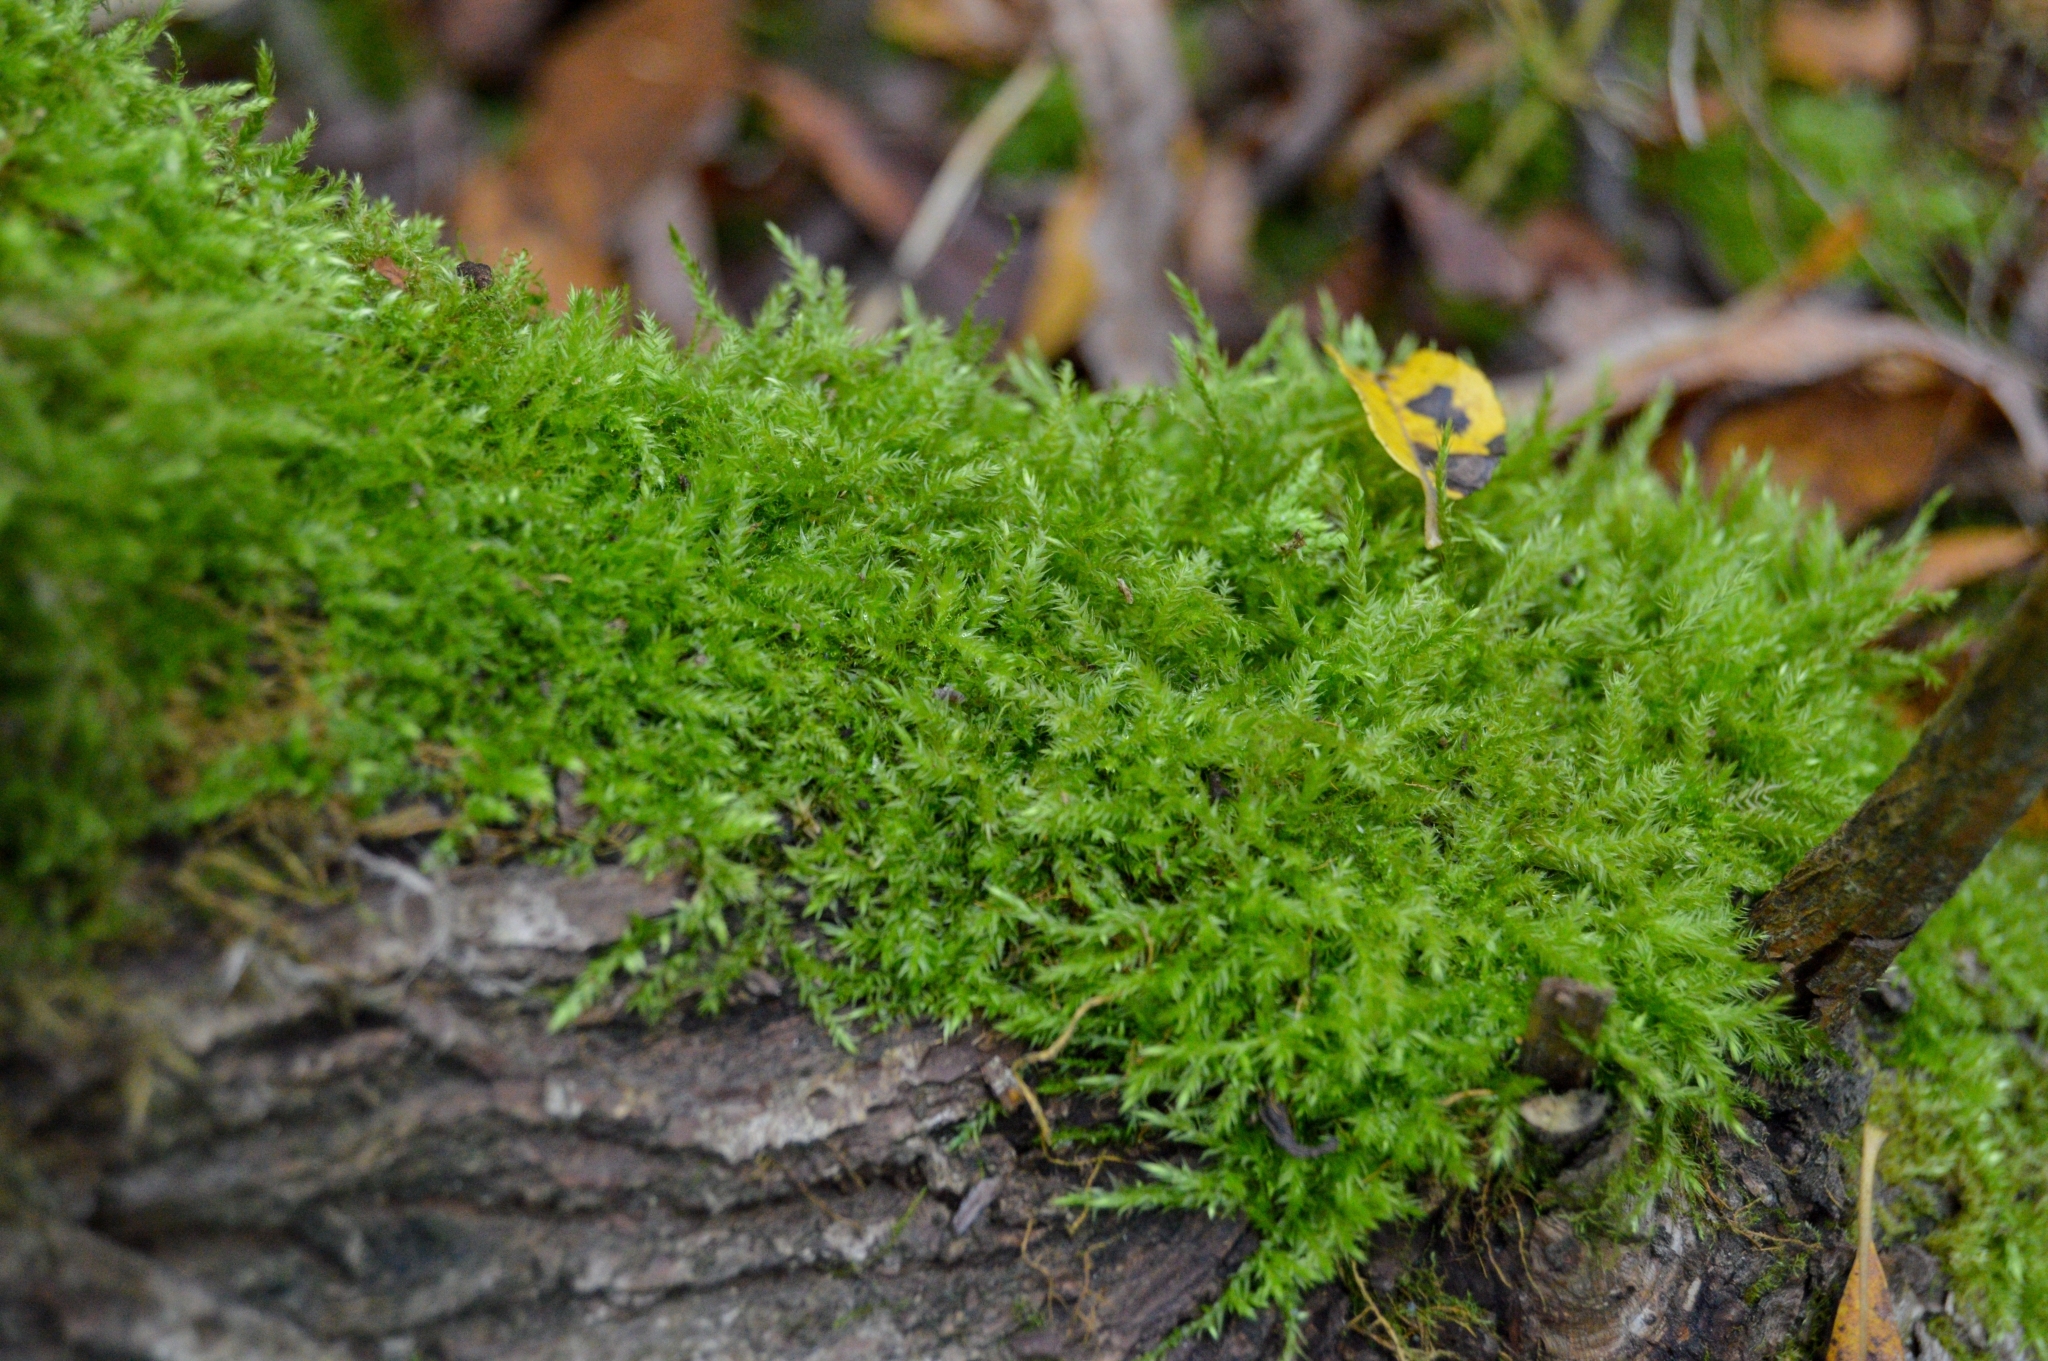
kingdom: Plantae
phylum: Bryophyta
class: Bryopsida
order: Hypnales
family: Brachytheciaceae
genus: Kindbergia
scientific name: Kindbergia praelonga
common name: Slender beaked moss
